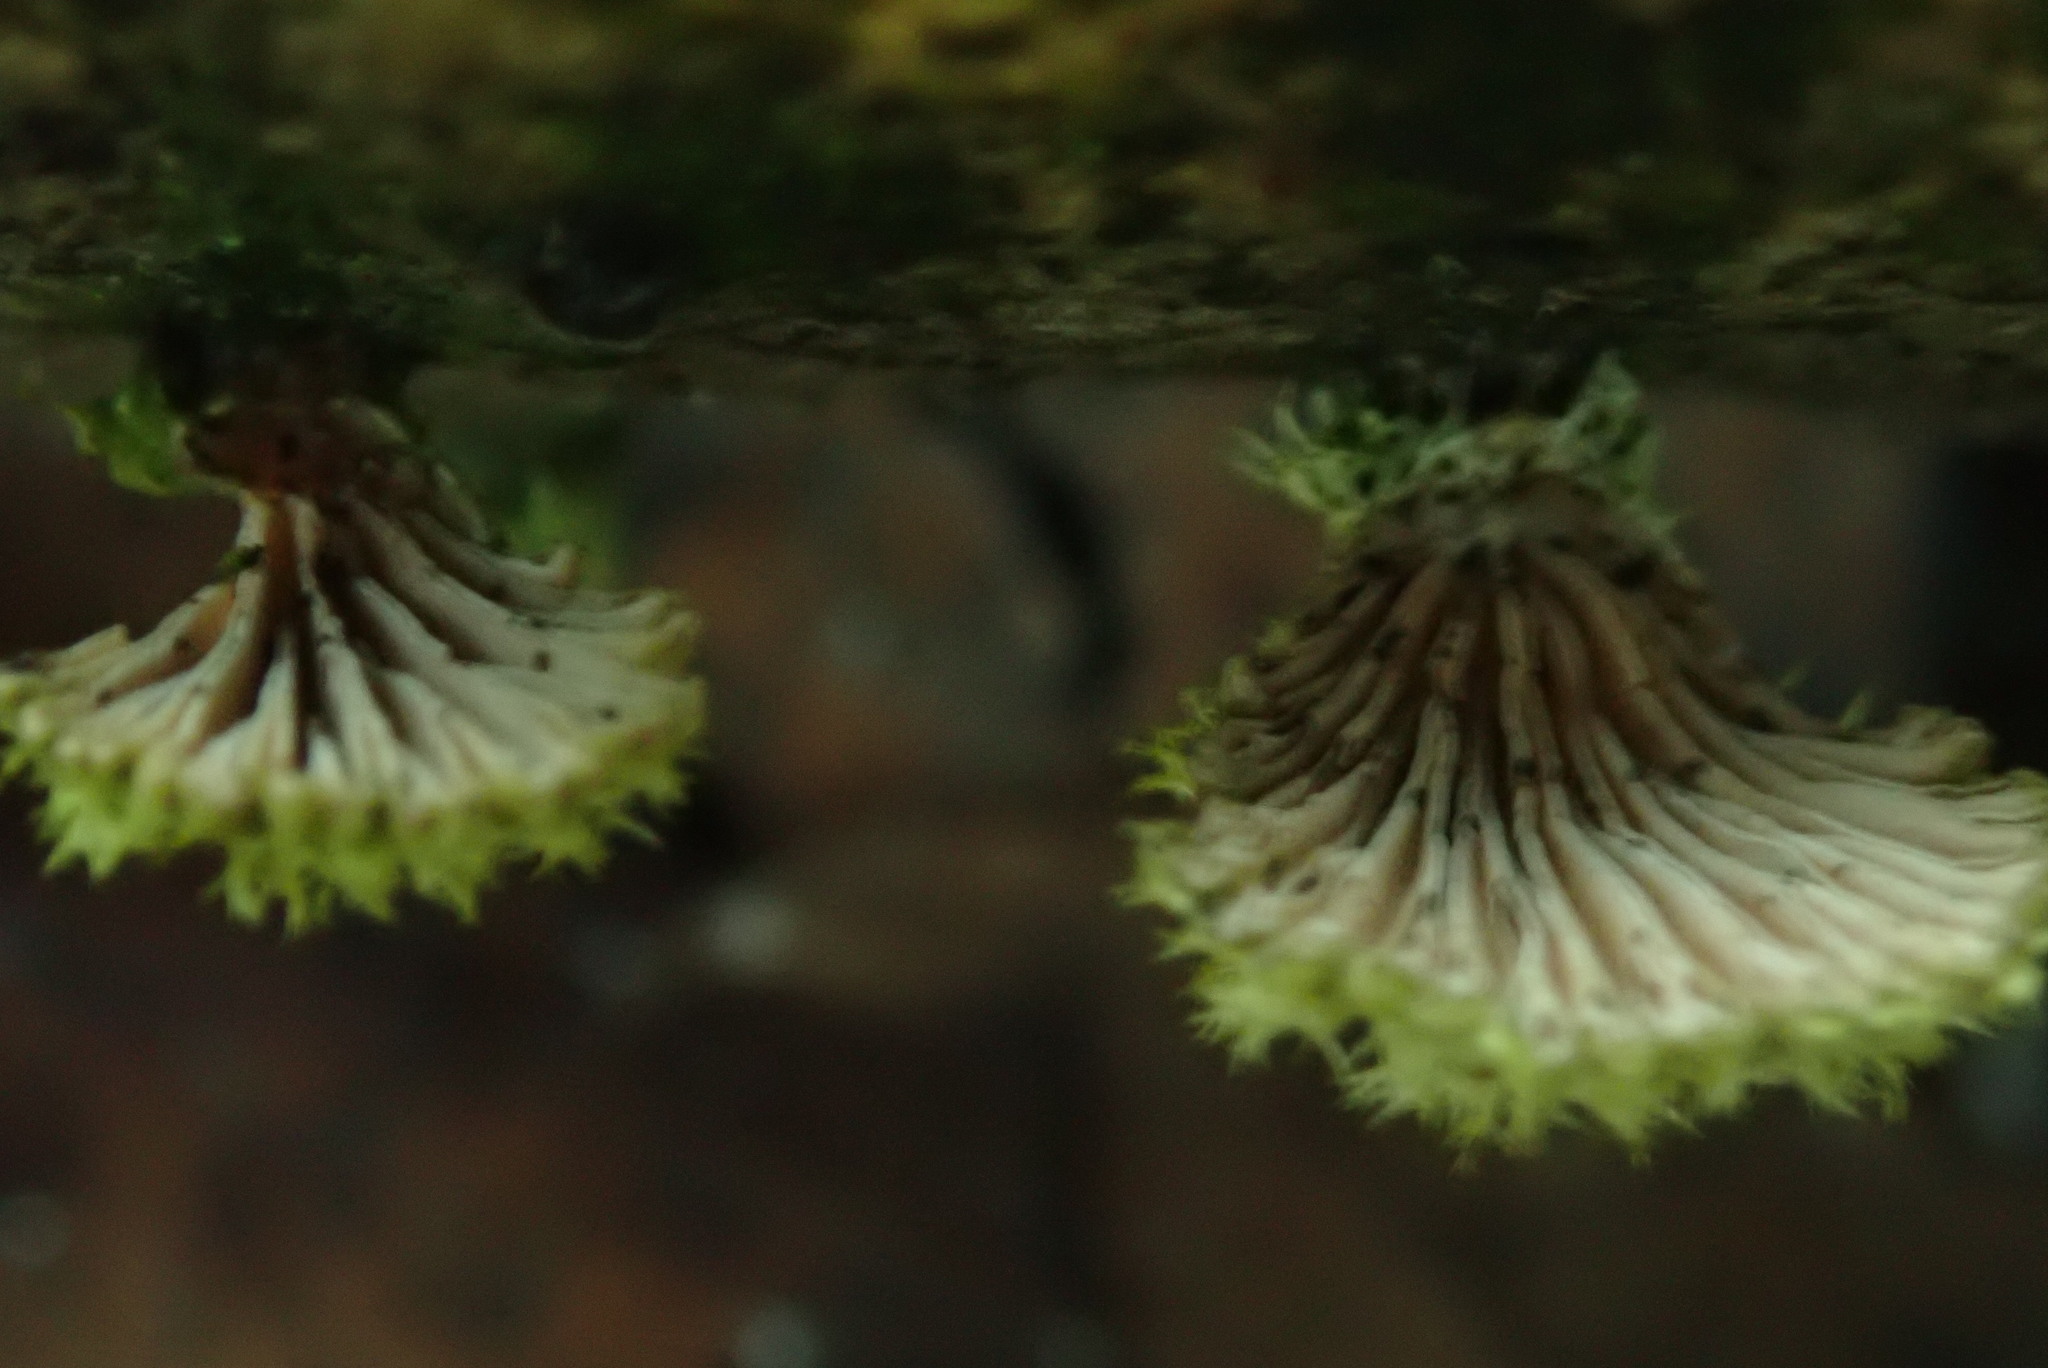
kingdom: Fungi
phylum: Basidiomycota
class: Agaricomycetes
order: Agaricales
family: Schizophyllaceae
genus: Schizophyllum
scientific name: Schizophyllum commune
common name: Common porecrust
